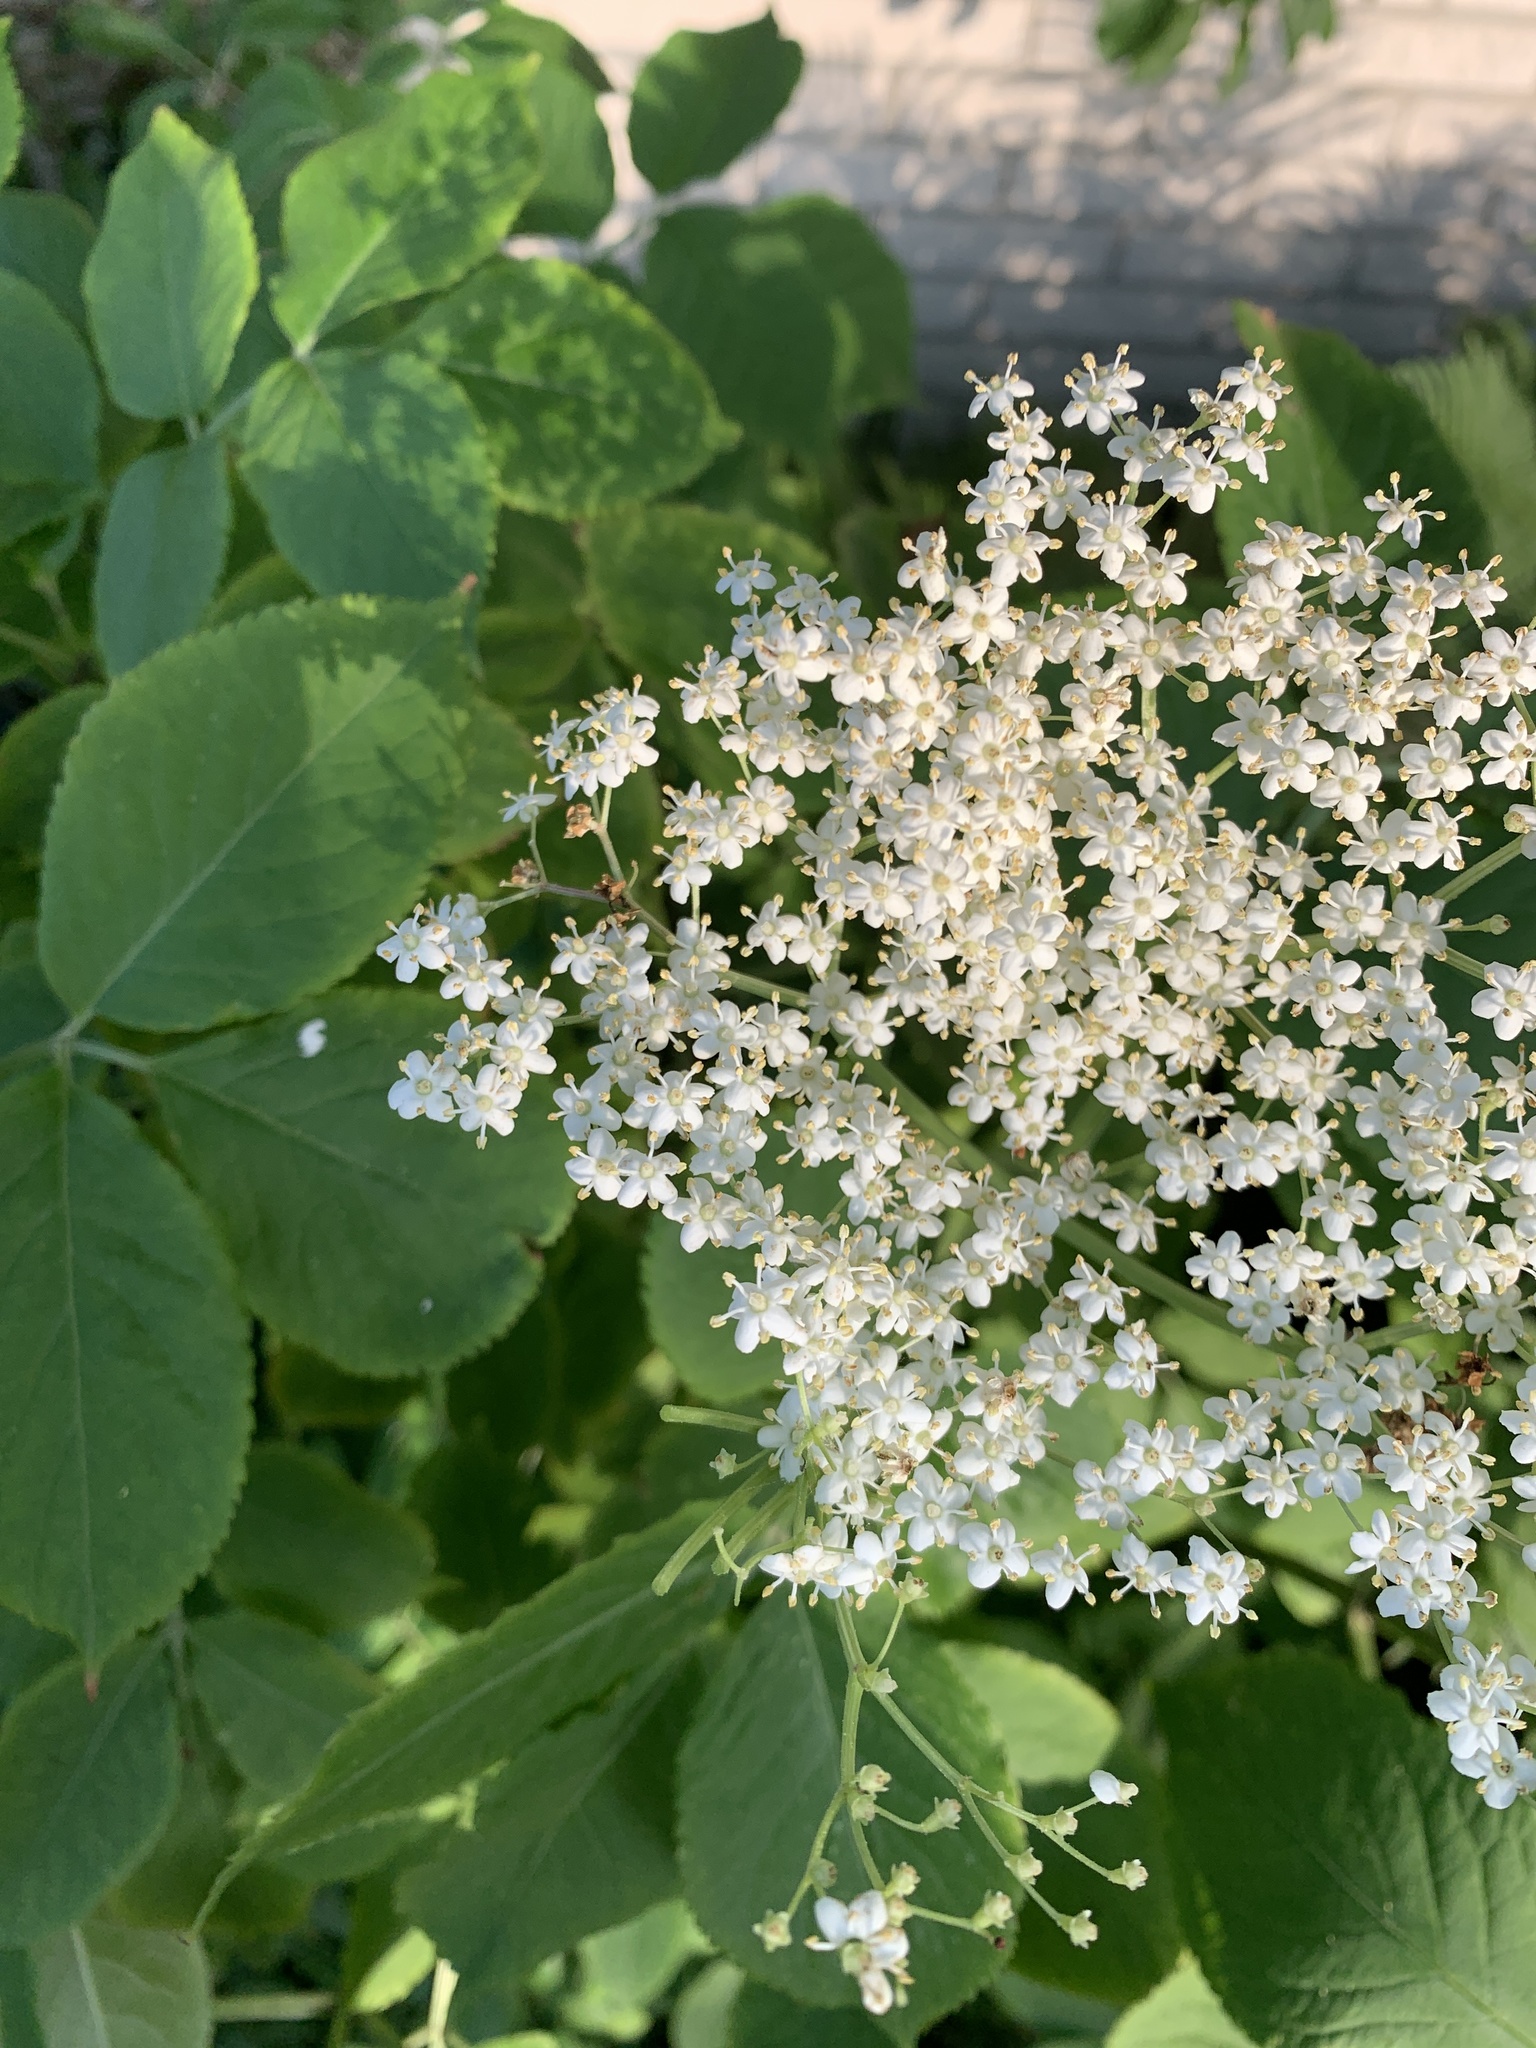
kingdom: Plantae
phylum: Tracheophyta
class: Magnoliopsida
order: Dipsacales
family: Viburnaceae
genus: Sambucus
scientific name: Sambucus nigra
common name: Elder
